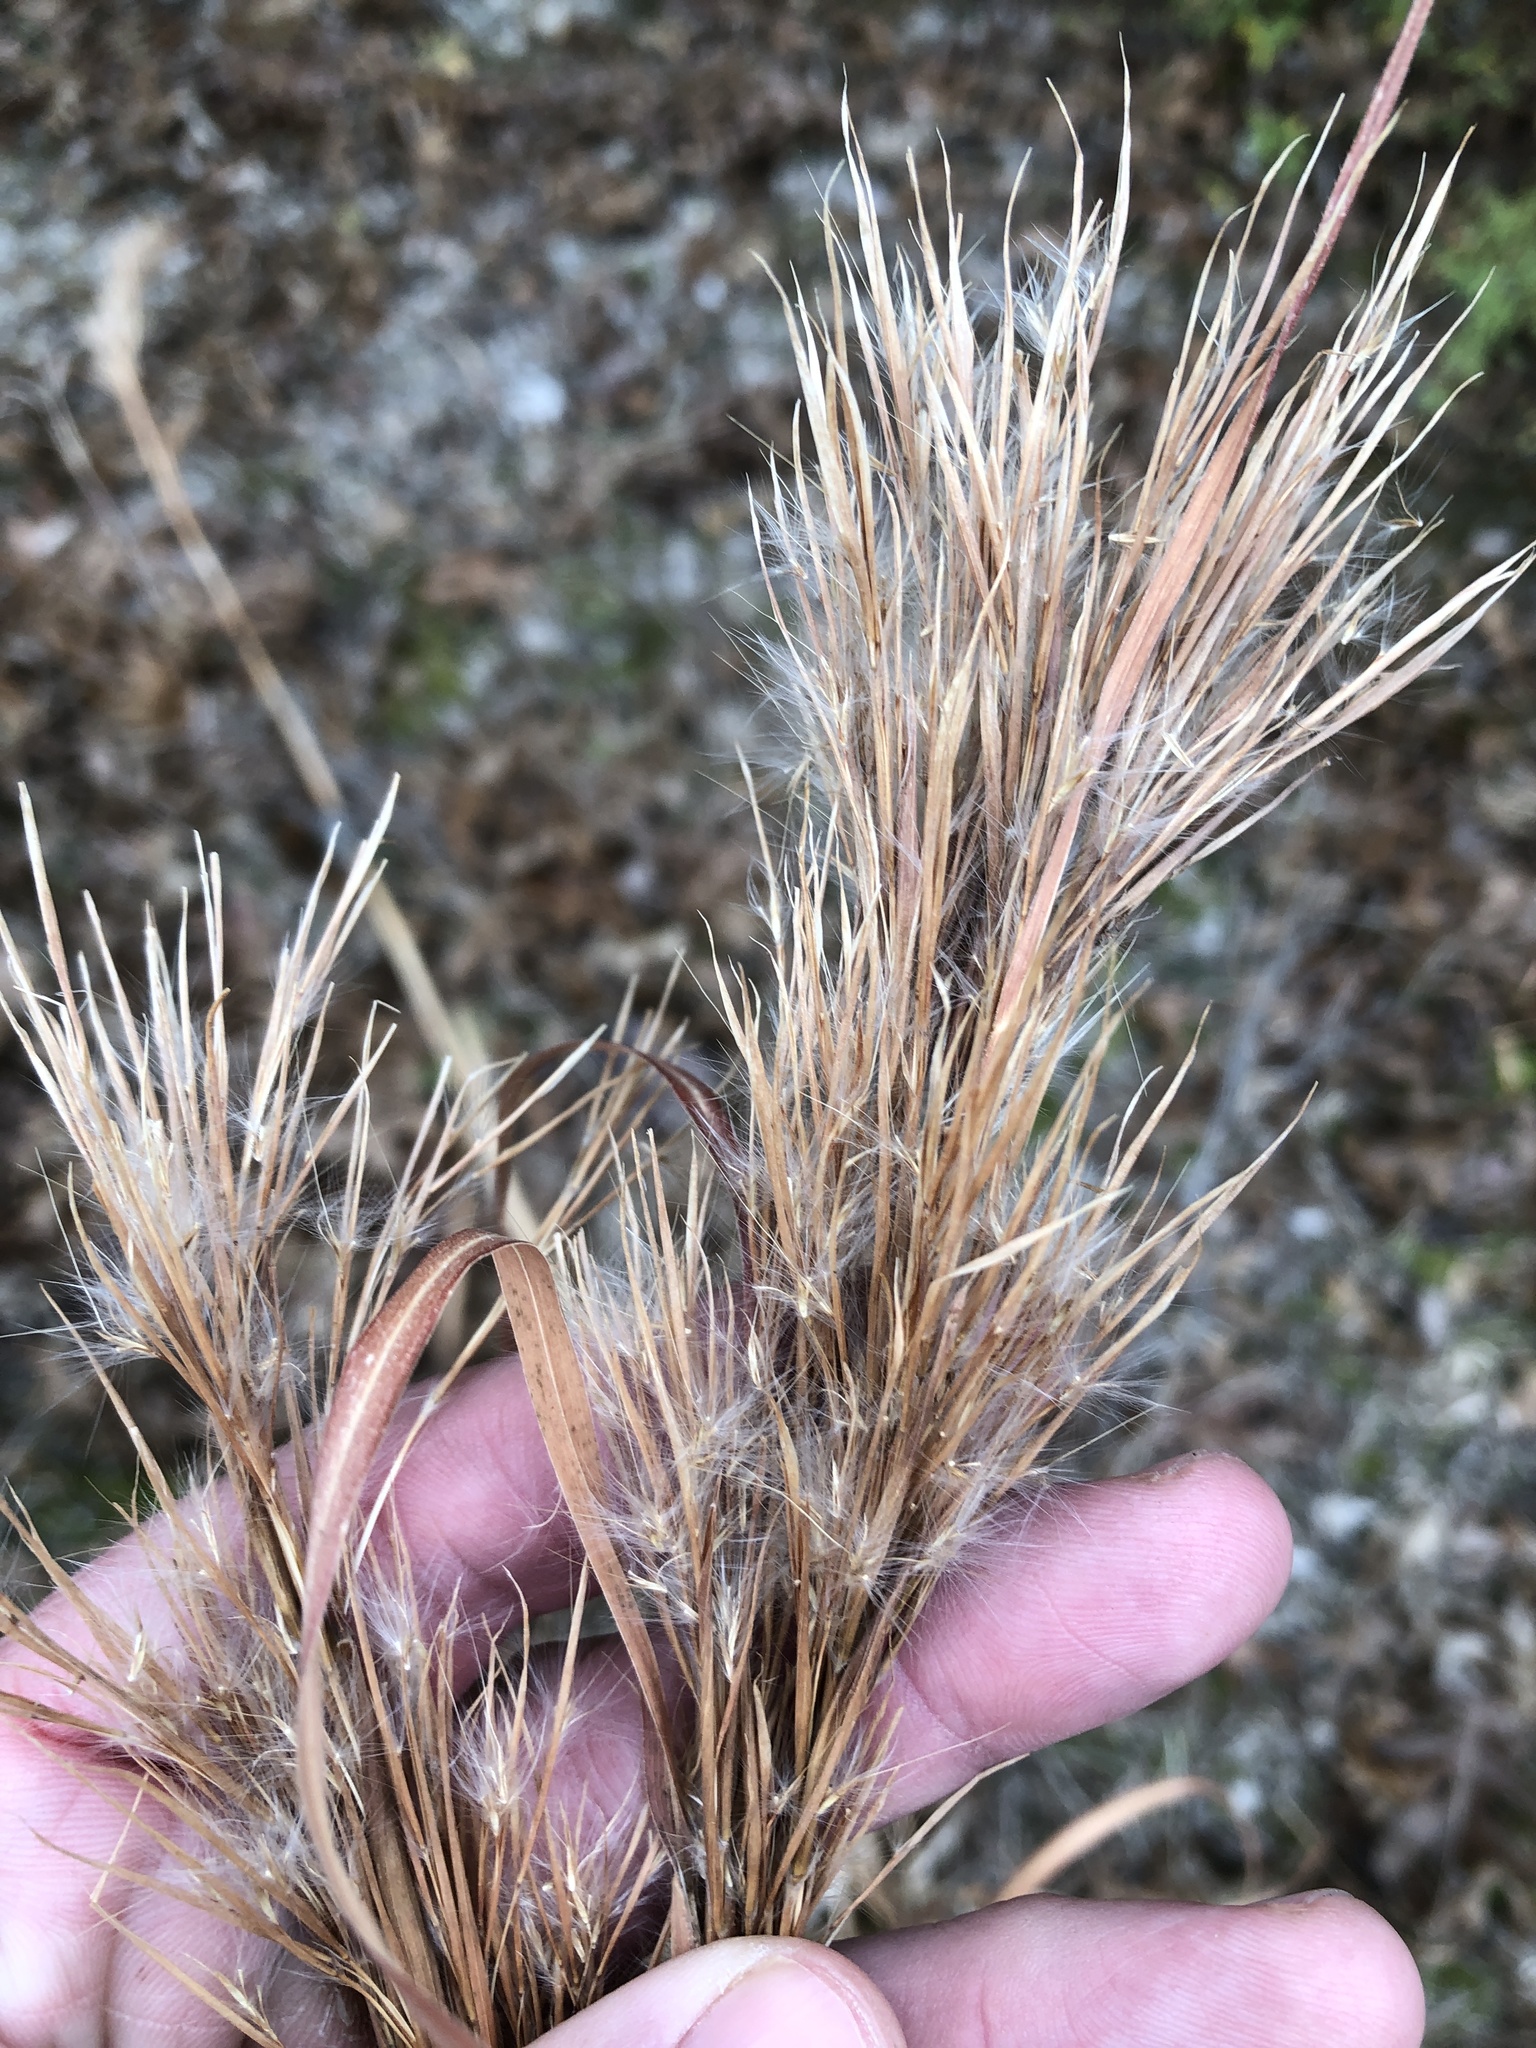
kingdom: Plantae
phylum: Tracheophyta
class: Liliopsida
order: Poales
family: Poaceae
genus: Andropogon
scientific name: Andropogon tenuispatheus
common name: Bushy bluestem
